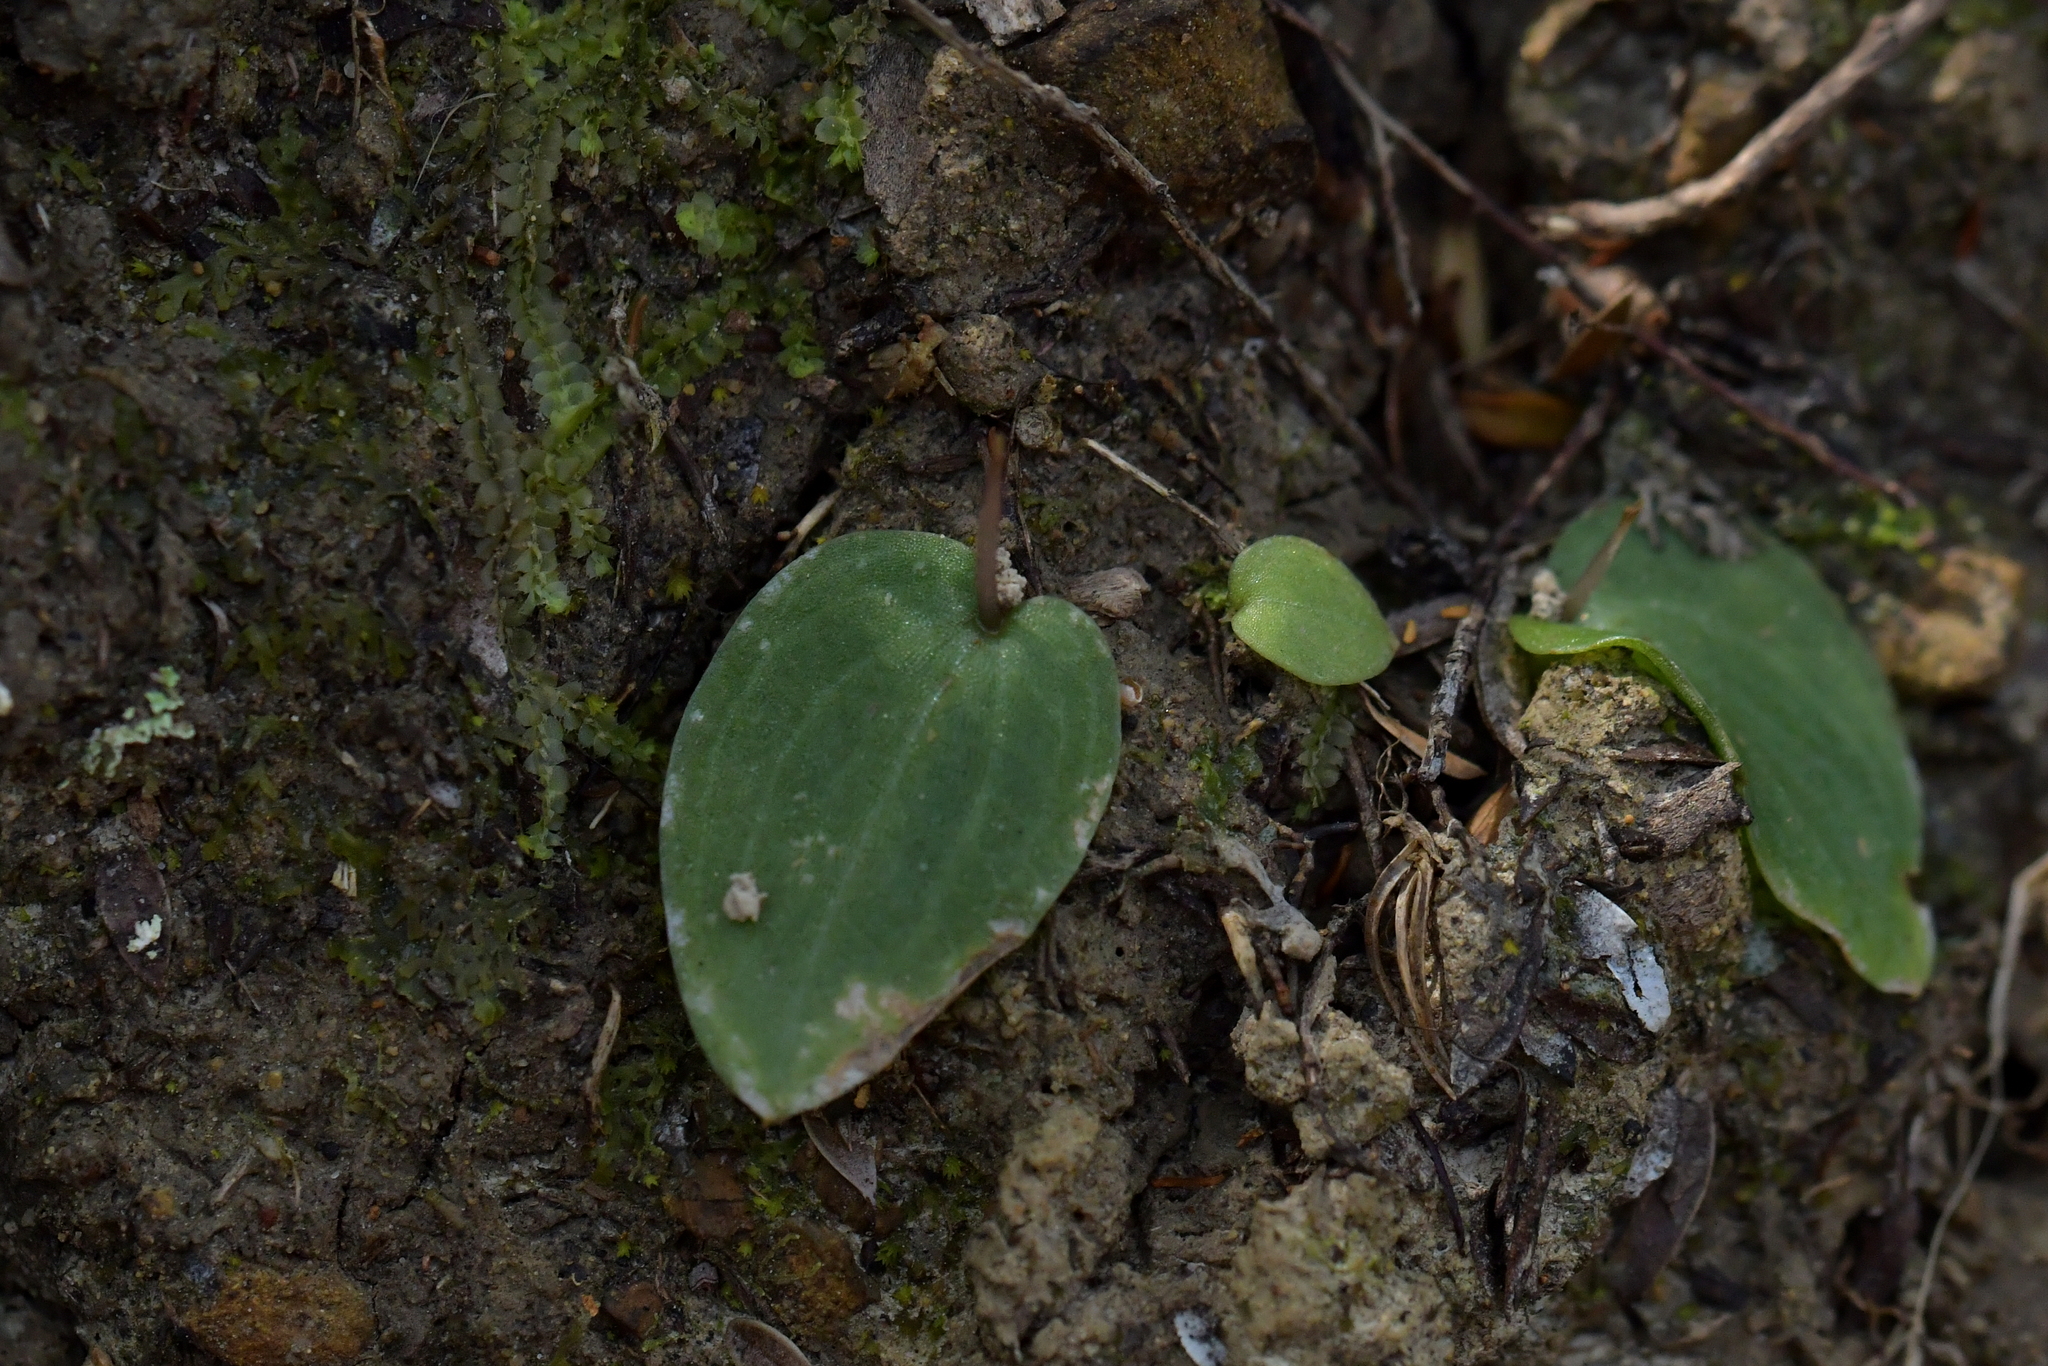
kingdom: Plantae
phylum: Tracheophyta
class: Liliopsida
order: Asparagales
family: Orchidaceae
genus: Cyrtostylis
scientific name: Cyrtostylis rotundifolia
